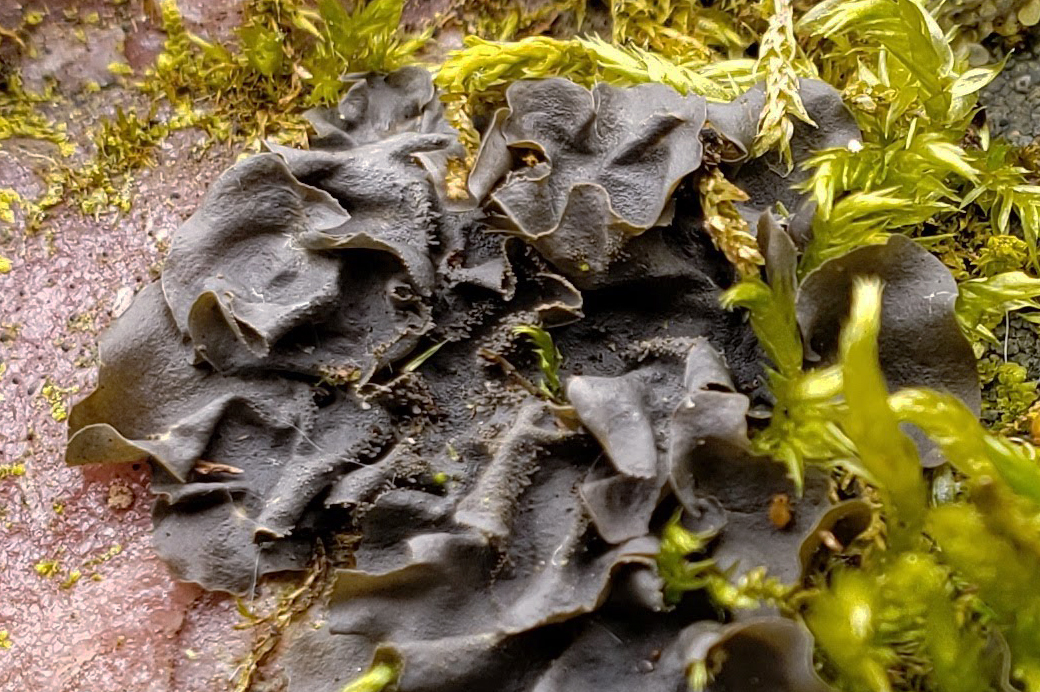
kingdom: Fungi
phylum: Ascomycota
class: Lecanoromycetes
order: Peltigerales
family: Collemataceae
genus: Leptogium
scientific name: Leptogium cyanescens
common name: Blue jellyskin
